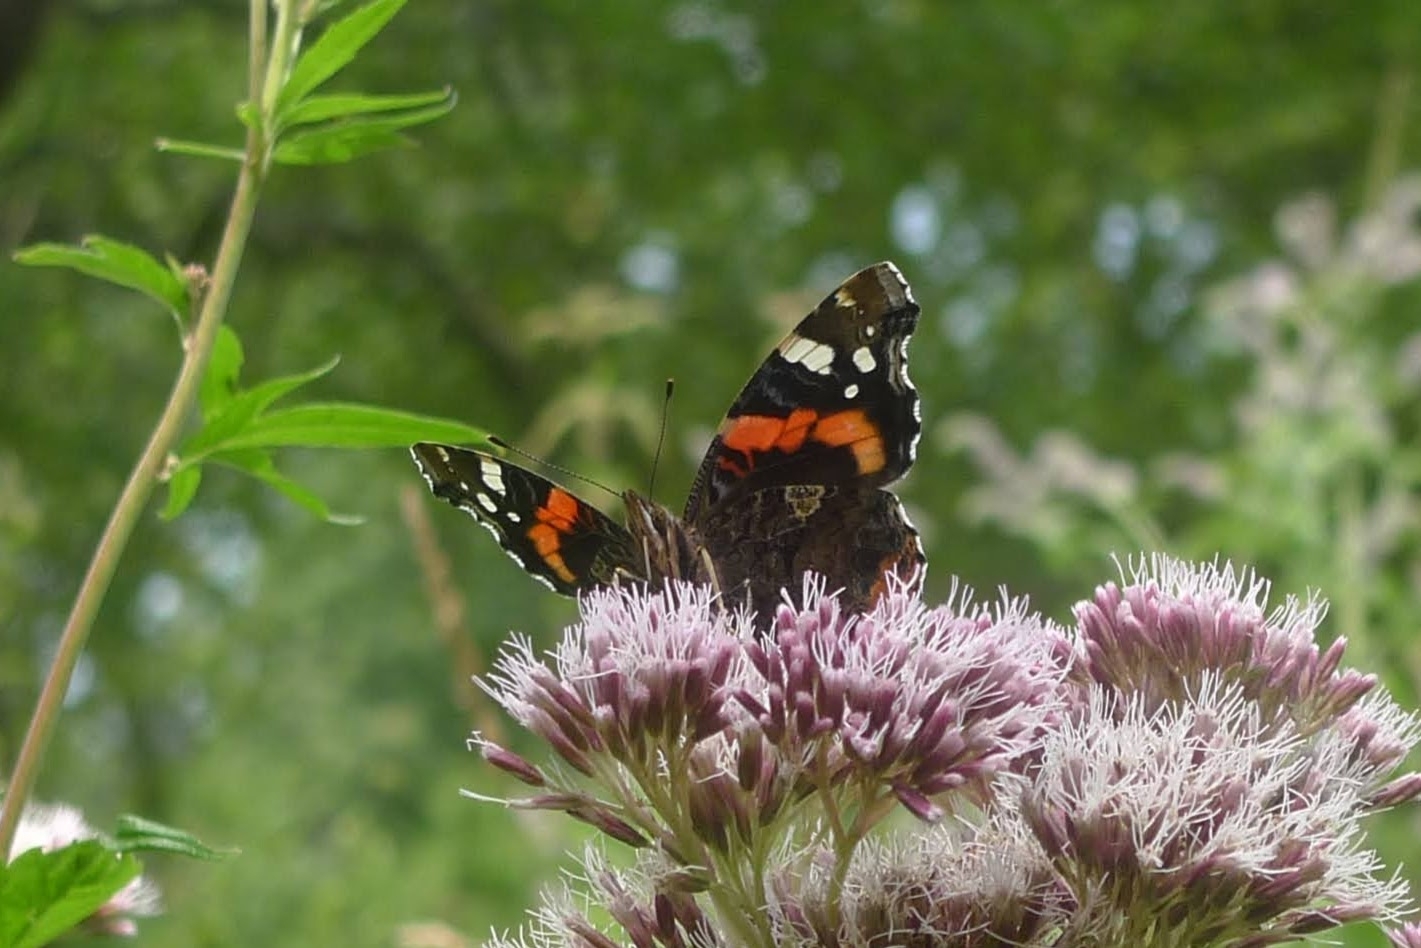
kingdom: Animalia
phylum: Arthropoda
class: Insecta
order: Lepidoptera
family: Nymphalidae
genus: Vanessa
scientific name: Vanessa atalanta
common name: Red admiral
